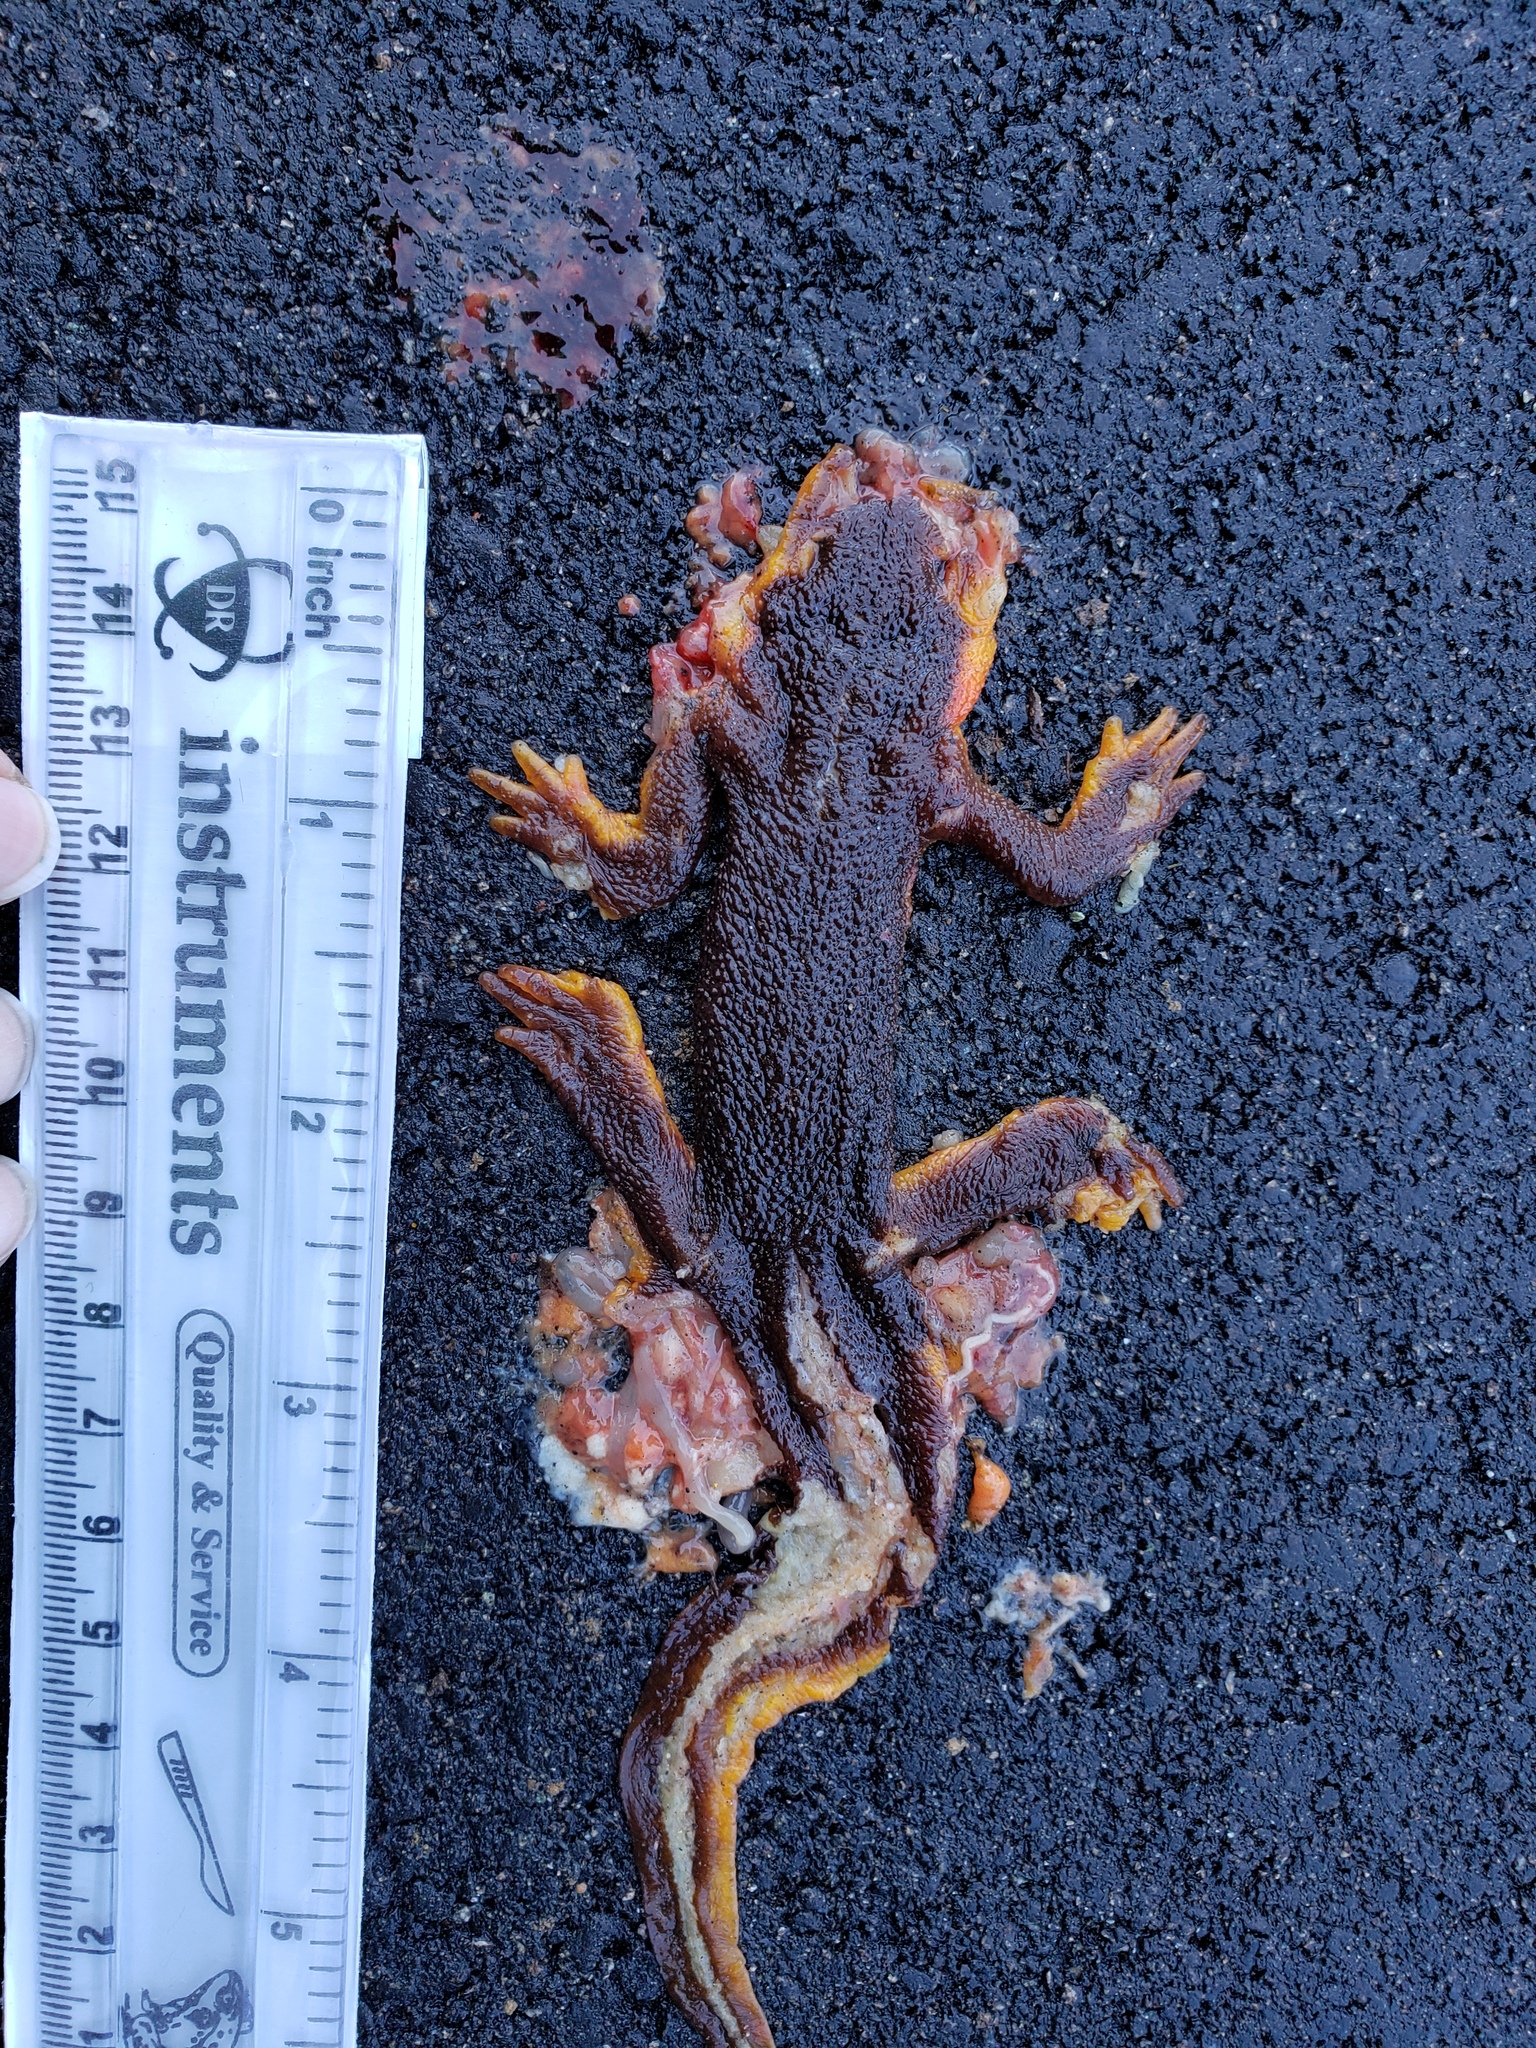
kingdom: Animalia
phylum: Chordata
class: Amphibia
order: Caudata
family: Salamandridae
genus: Taricha
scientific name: Taricha
